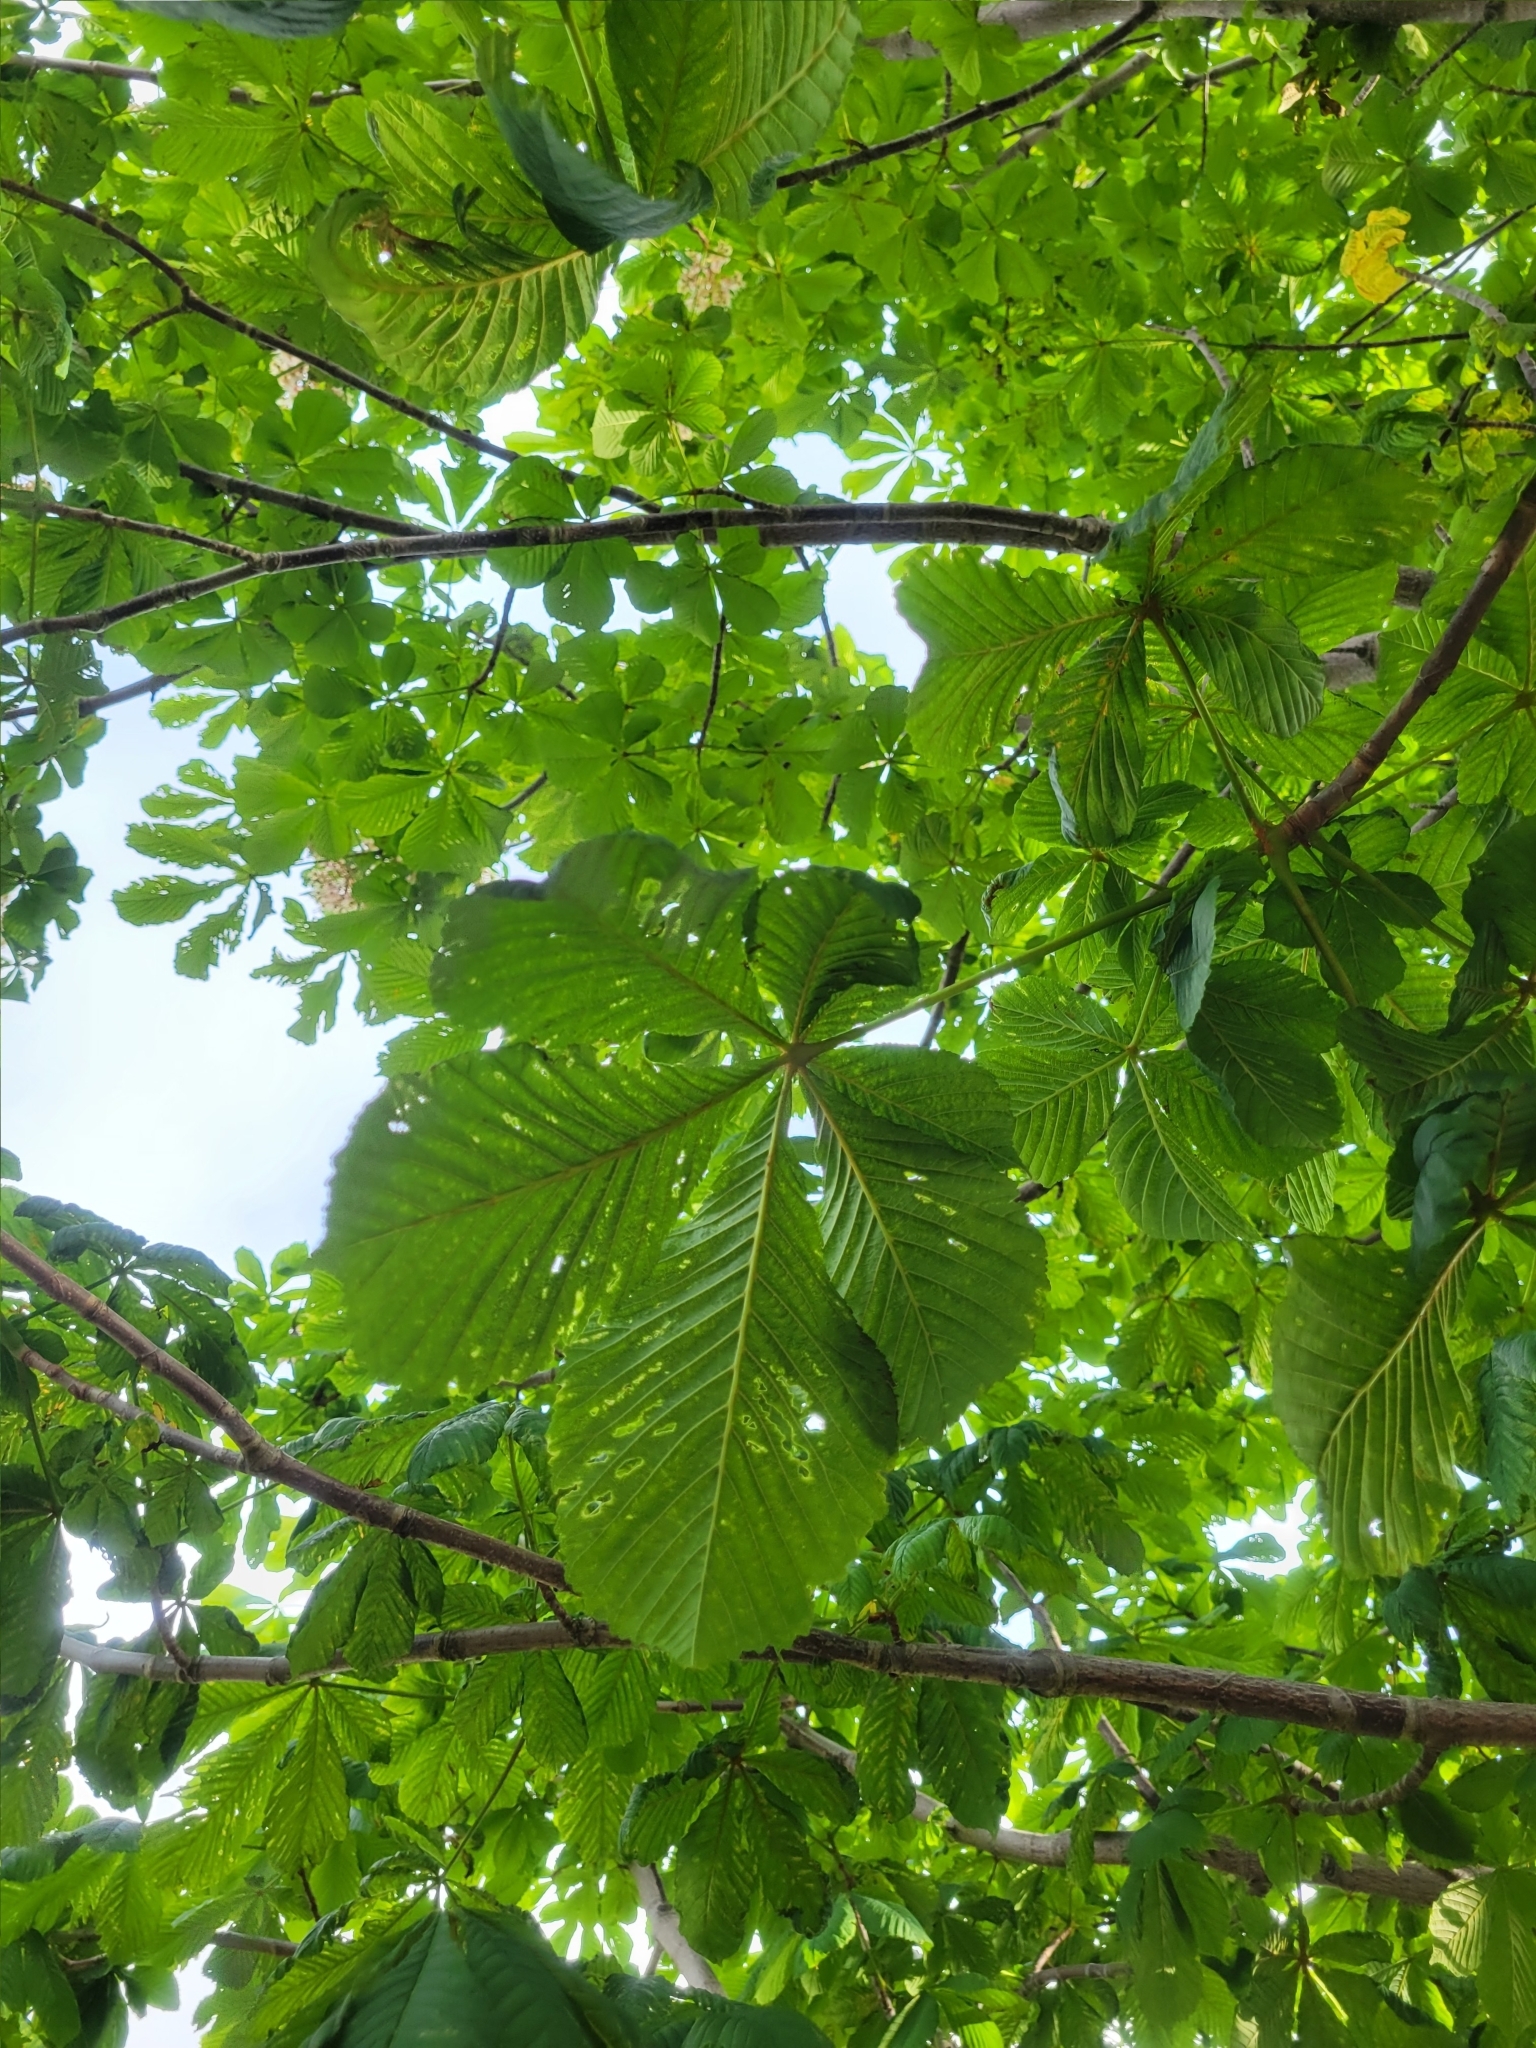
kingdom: Plantae
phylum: Tracheophyta
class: Magnoliopsida
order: Sapindales
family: Sapindaceae
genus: Aesculus
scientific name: Aesculus hippocastanum
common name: Horse-chestnut
